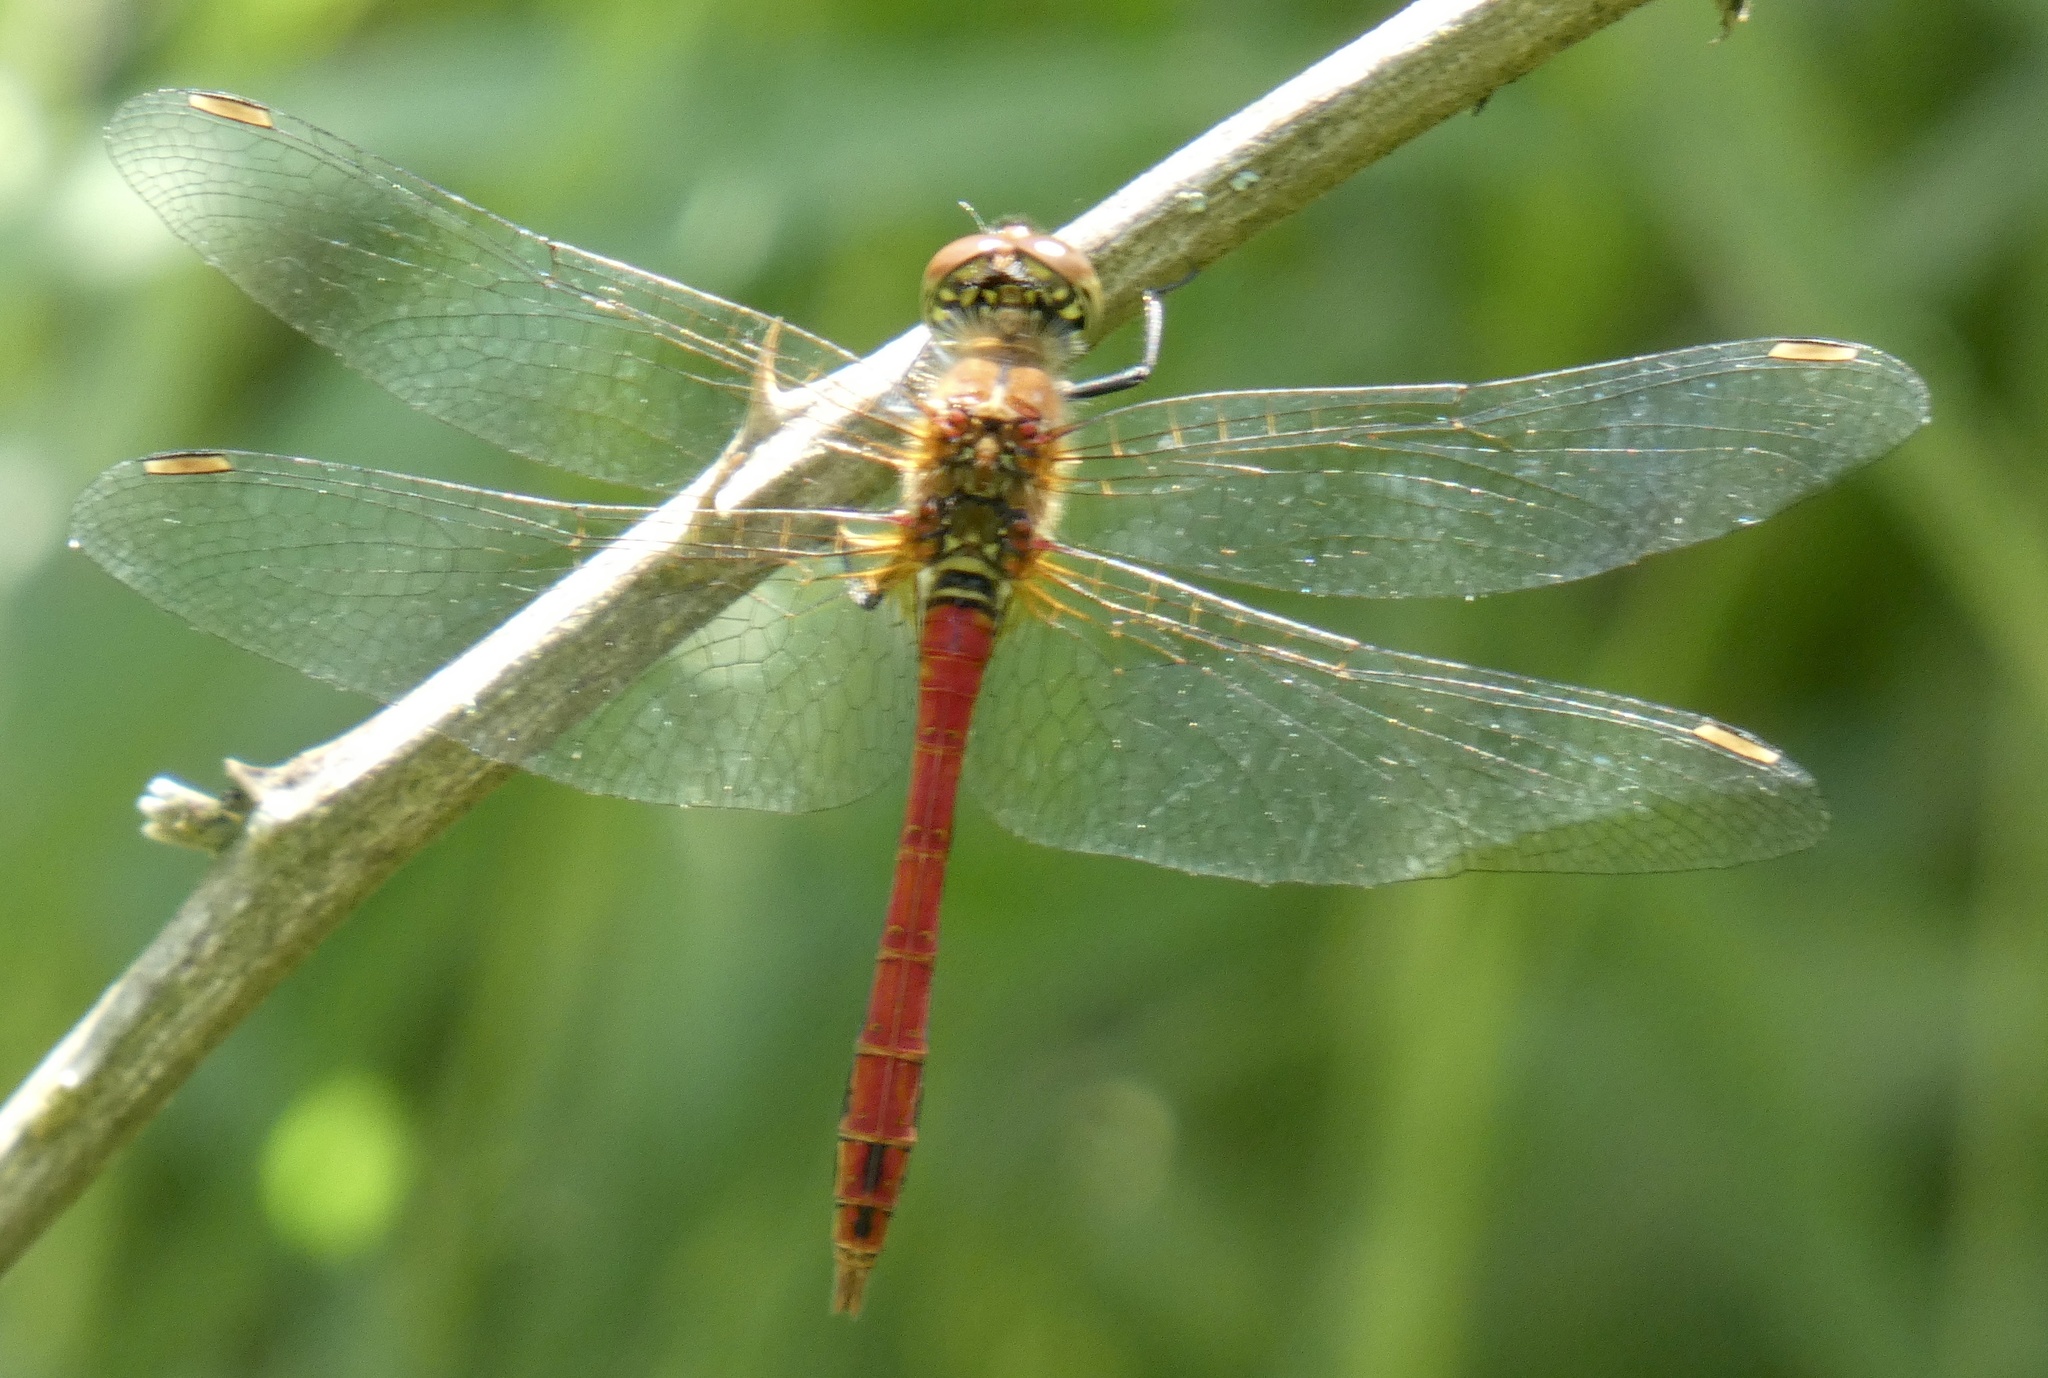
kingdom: Animalia
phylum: Arthropoda
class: Insecta
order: Odonata
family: Libellulidae
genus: Sympetrum
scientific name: Sympetrum sanguineum
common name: Ruddy darter
